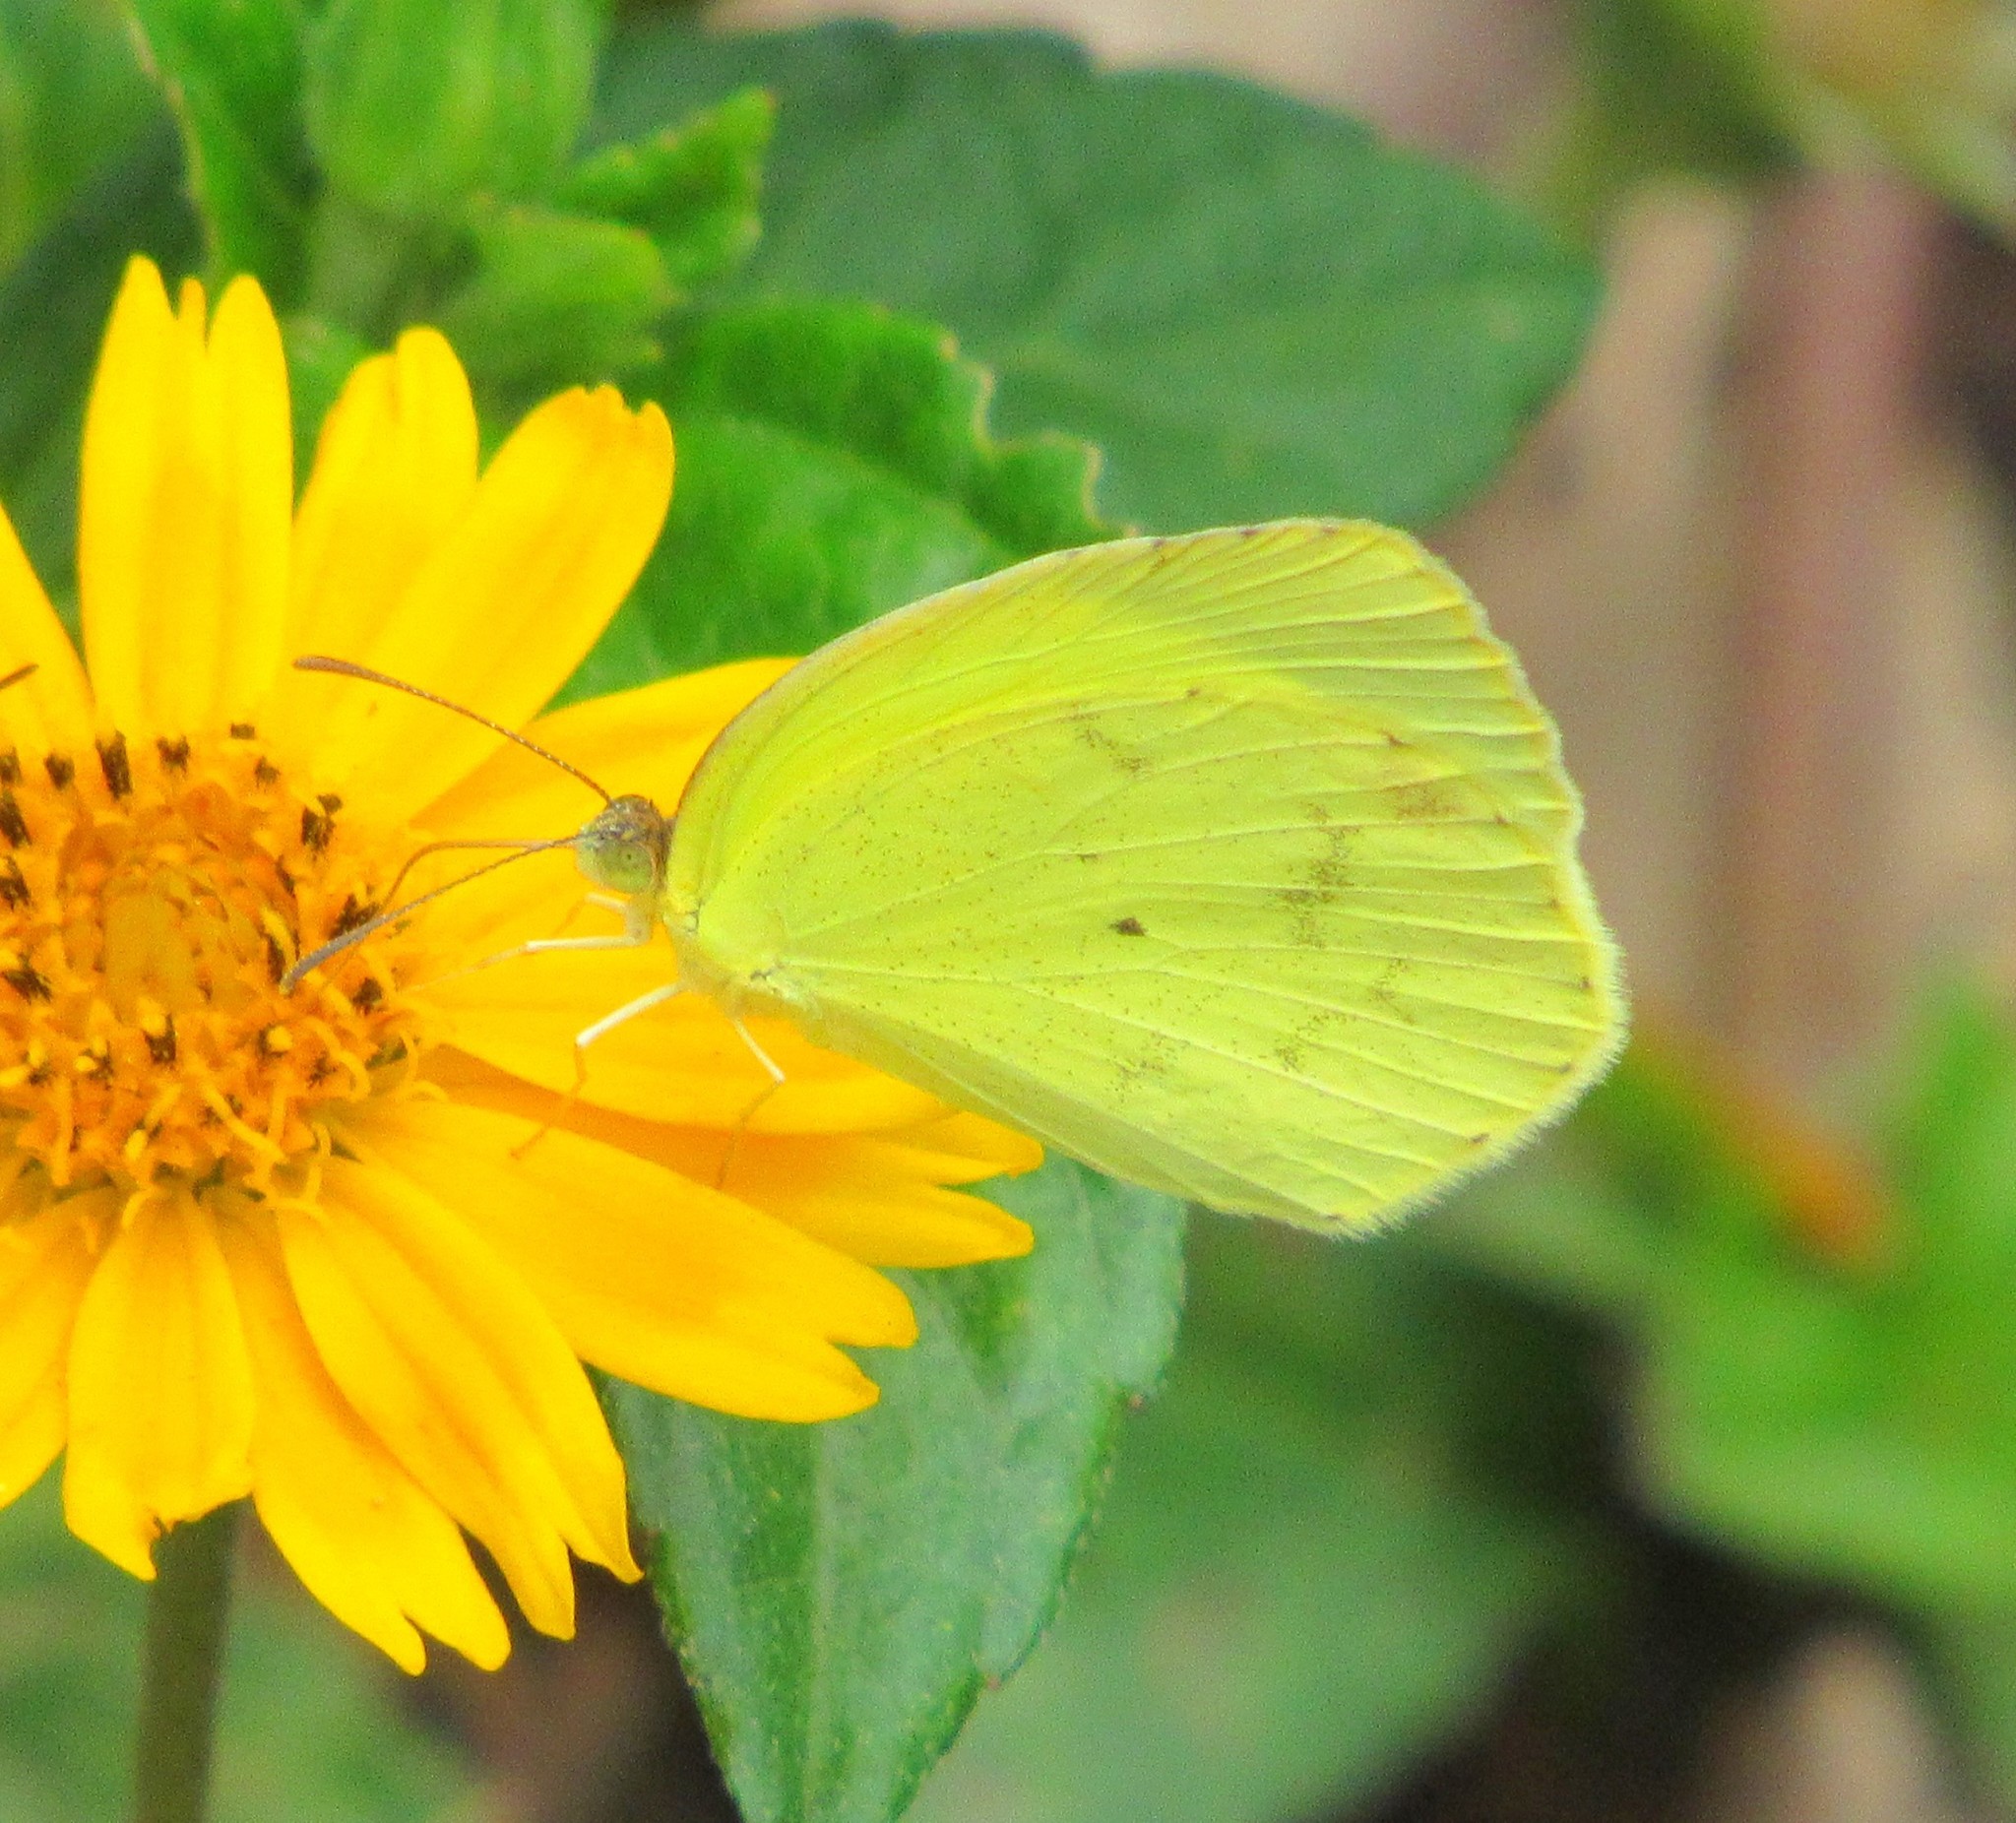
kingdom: Animalia
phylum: Arthropoda
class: Insecta
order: Lepidoptera
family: Pieridae
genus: Pyrisitia
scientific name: Pyrisitia nise
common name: Mimosa yellow
